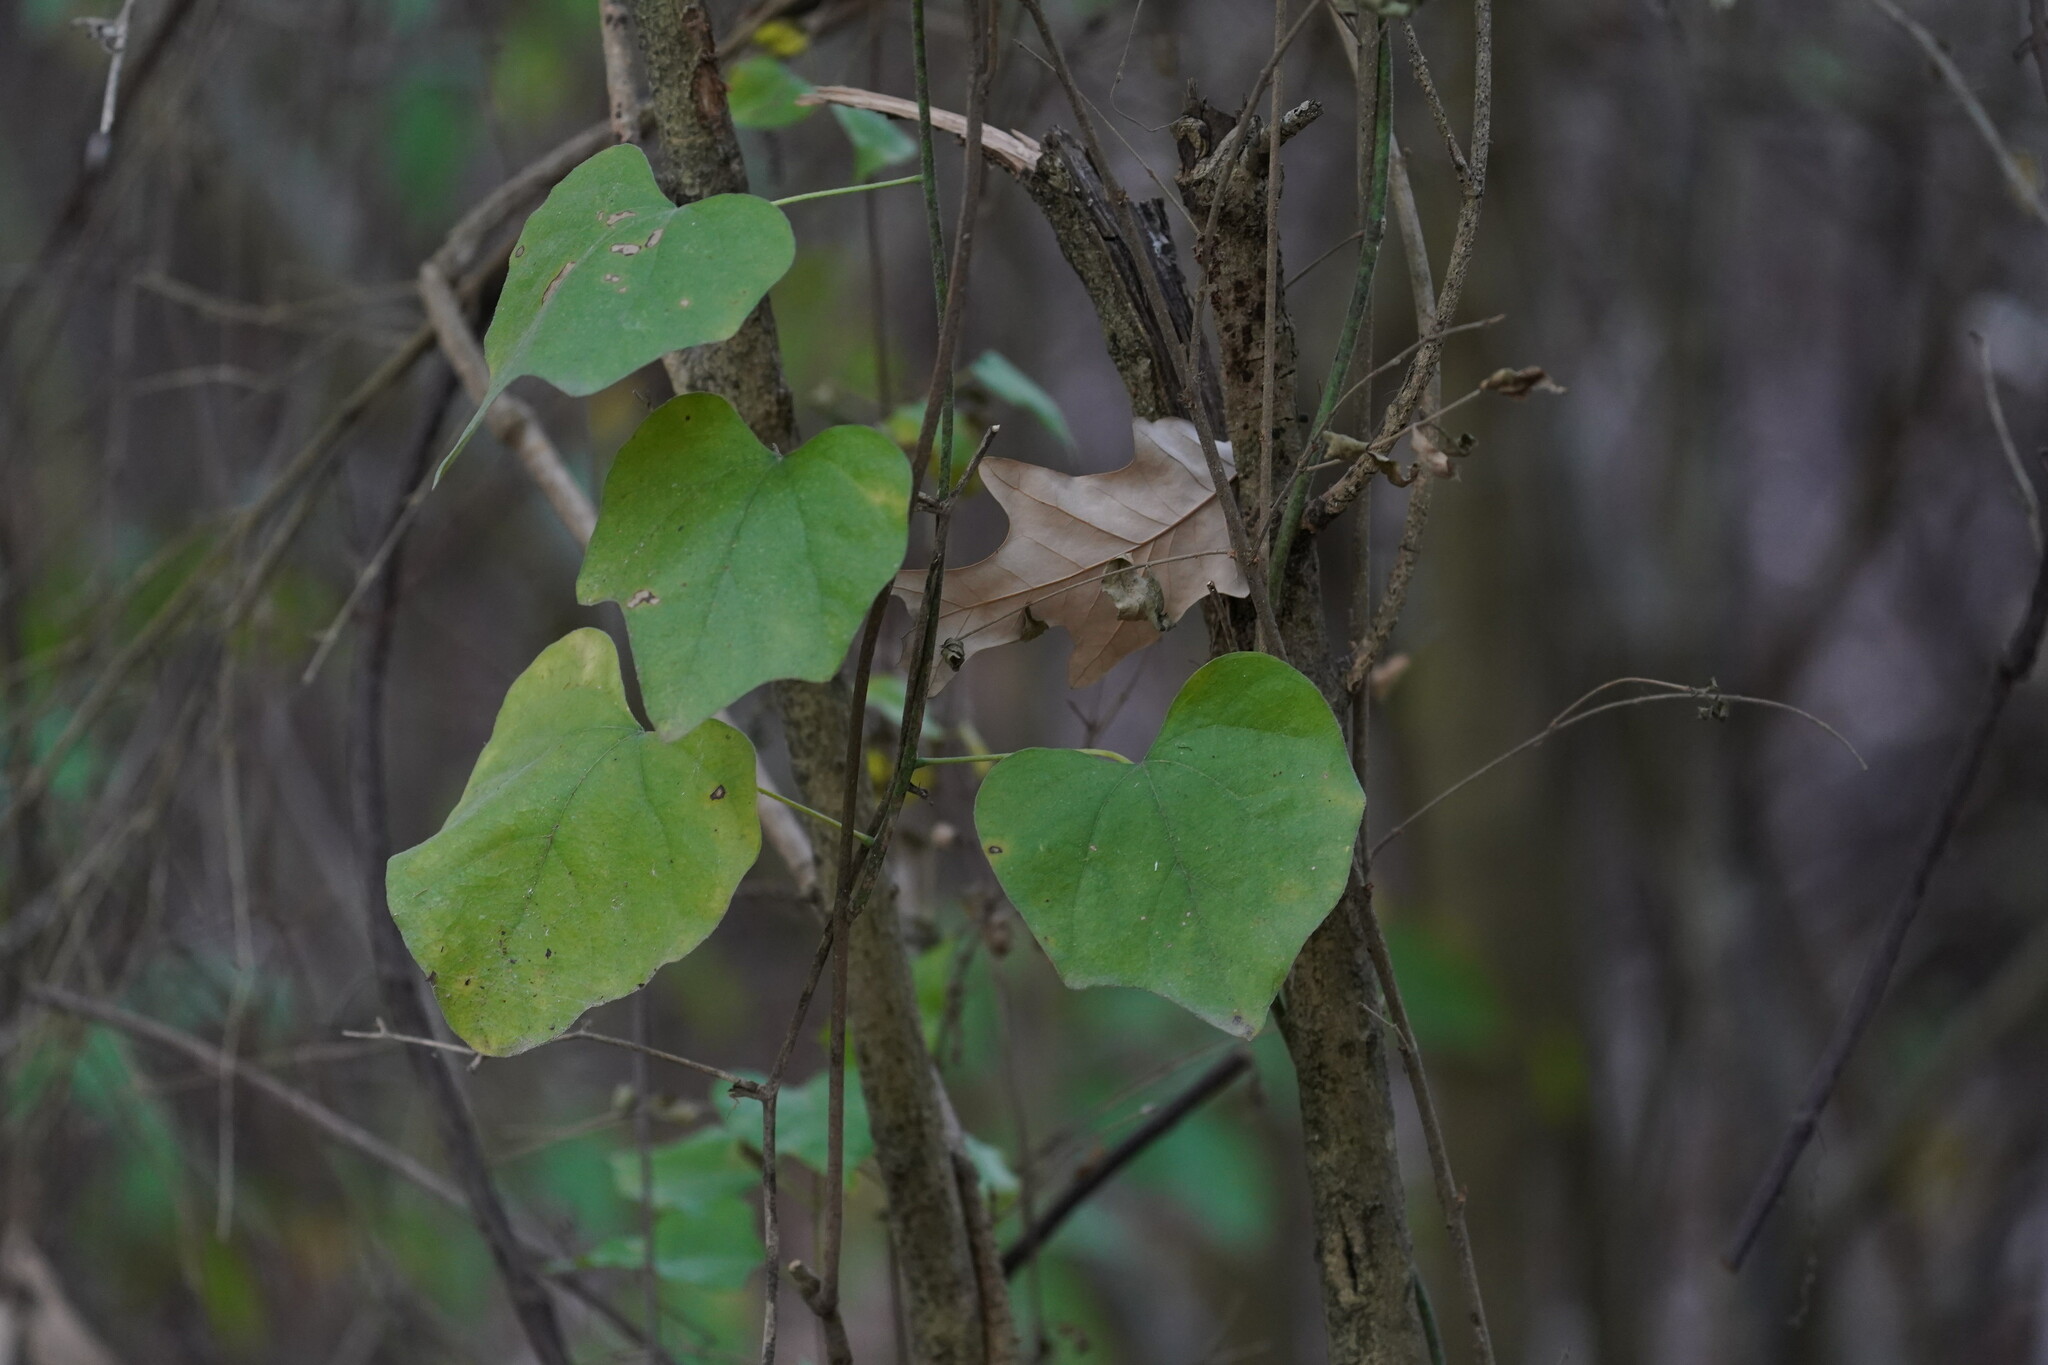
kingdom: Plantae
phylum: Tracheophyta
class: Magnoliopsida
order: Ranunculales
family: Menispermaceae
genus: Cocculus
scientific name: Cocculus carolinus
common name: Carolina moonseed
